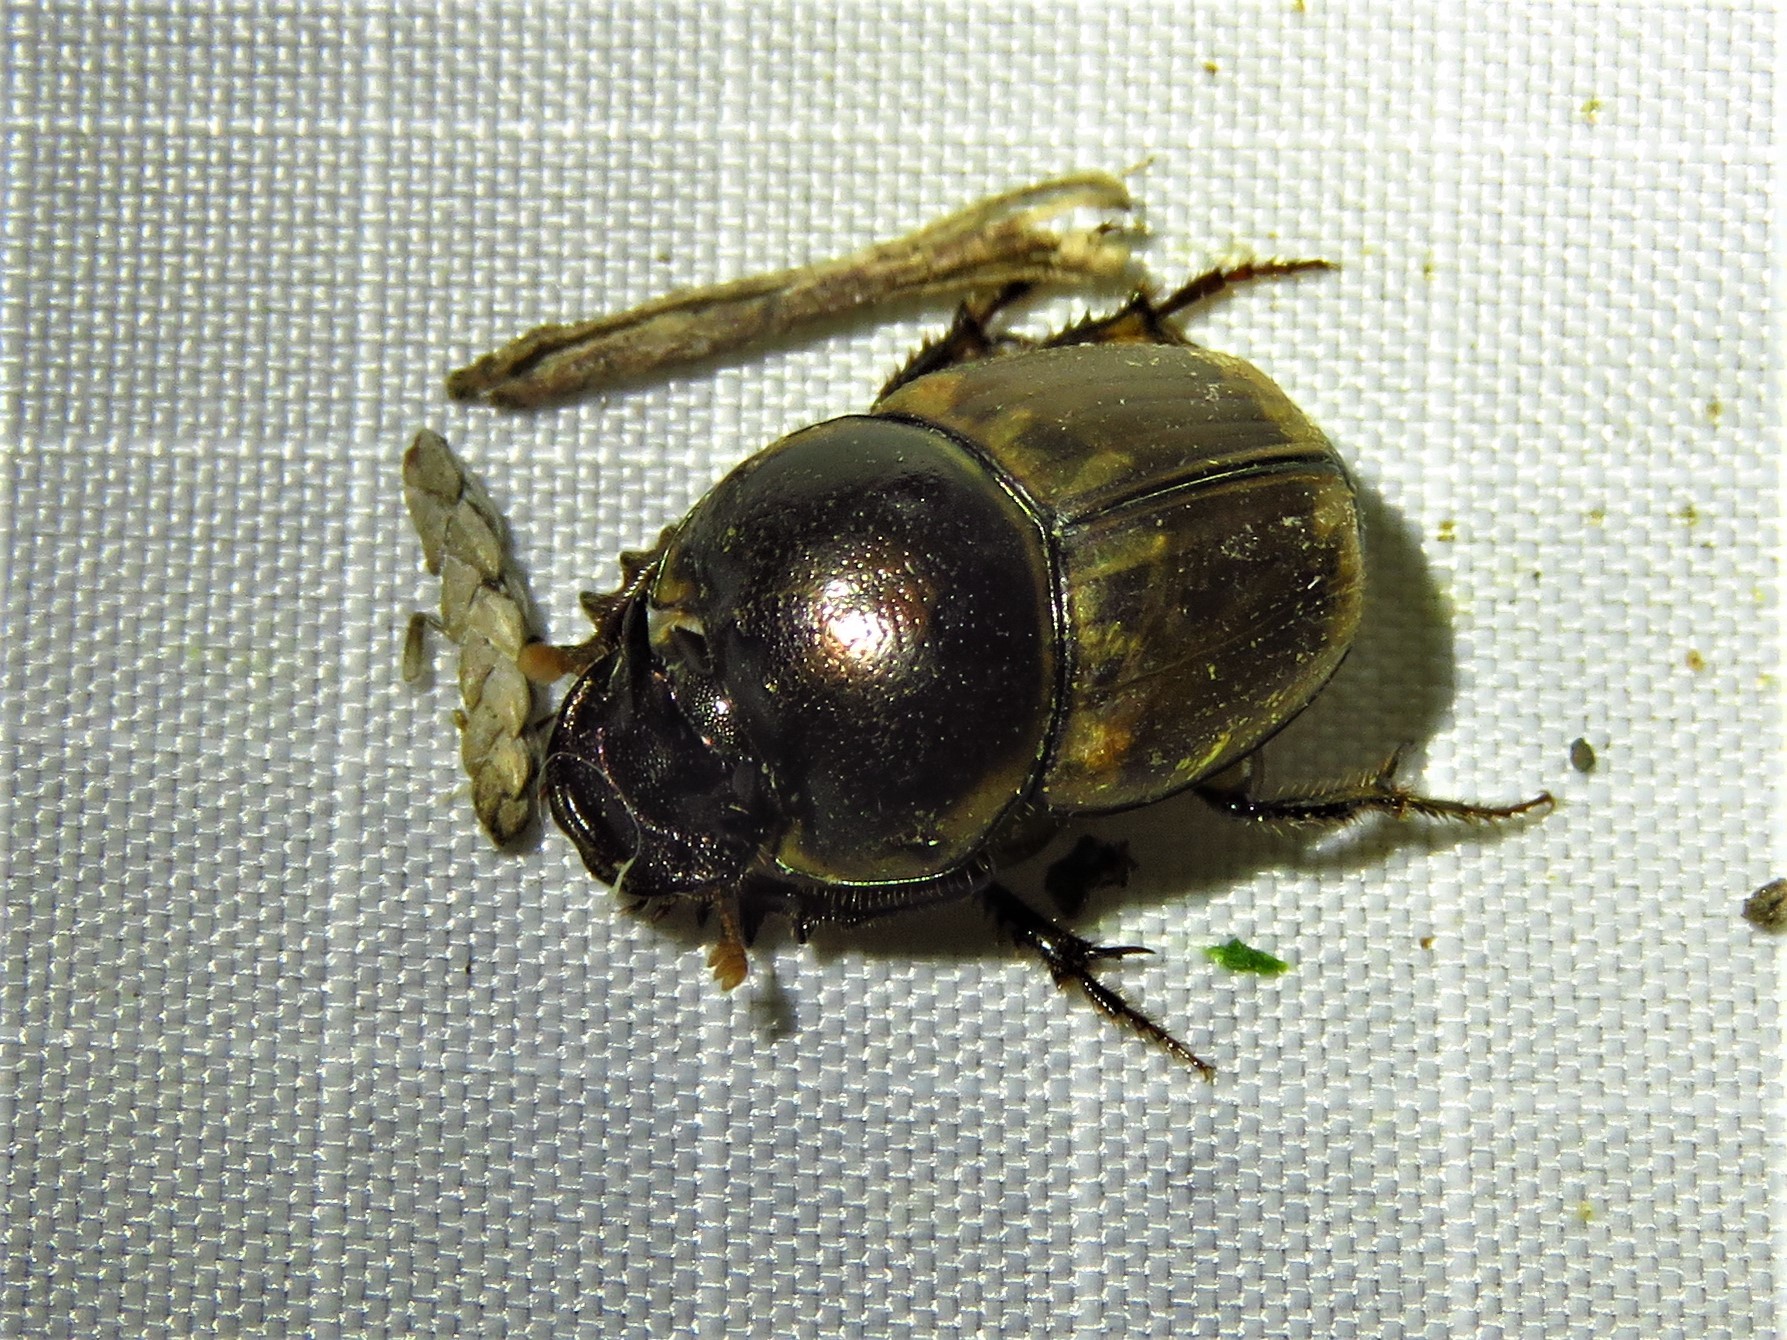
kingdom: Animalia
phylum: Arthropoda
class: Insecta
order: Coleoptera
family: Scarabaeidae
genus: Digitonthophagus
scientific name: Digitonthophagus gazella
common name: Brown dung beetle
